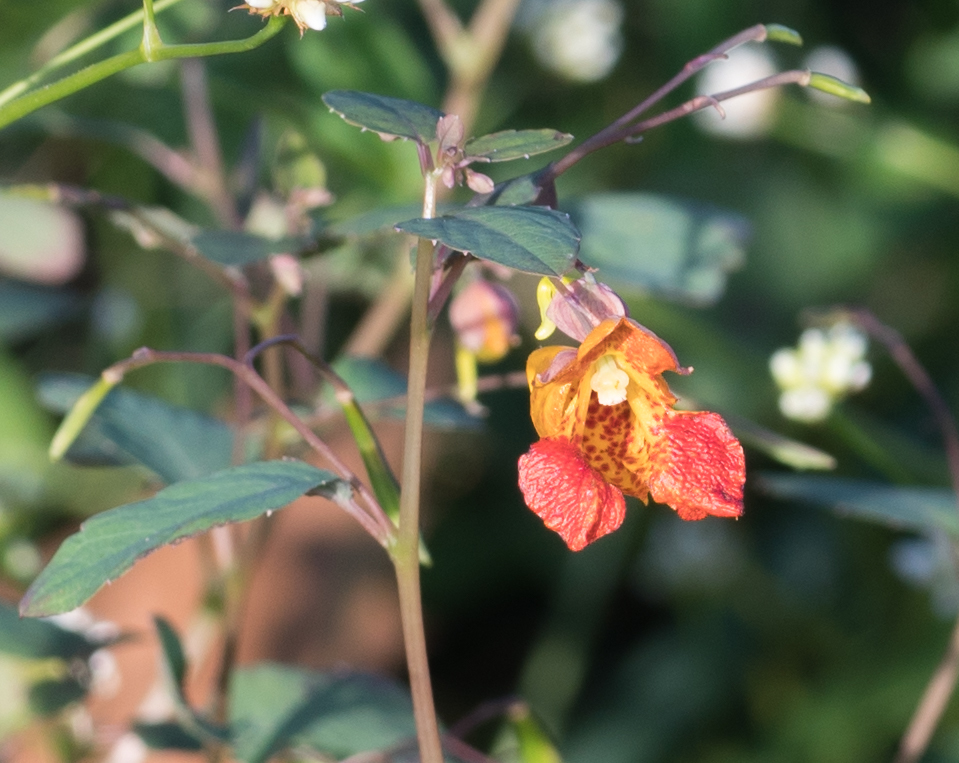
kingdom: Plantae
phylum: Tracheophyta
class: Magnoliopsida
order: Ericales
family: Balsaminaceae
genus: Impatiens
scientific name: Impatiens capensis
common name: Orange balsam
